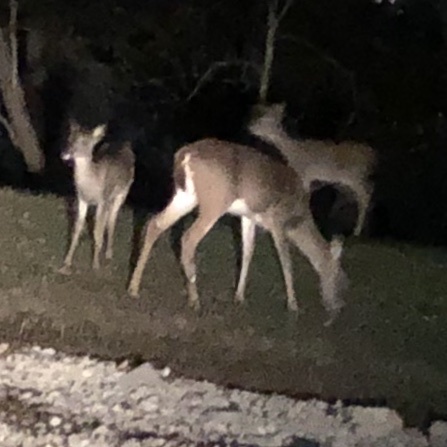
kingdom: Animalia
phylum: Chordata
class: Mammalia
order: Artiodactyla
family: Cervidae
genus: Odocoileus
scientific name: Odocoileus virginianus
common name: White-tailed deer
